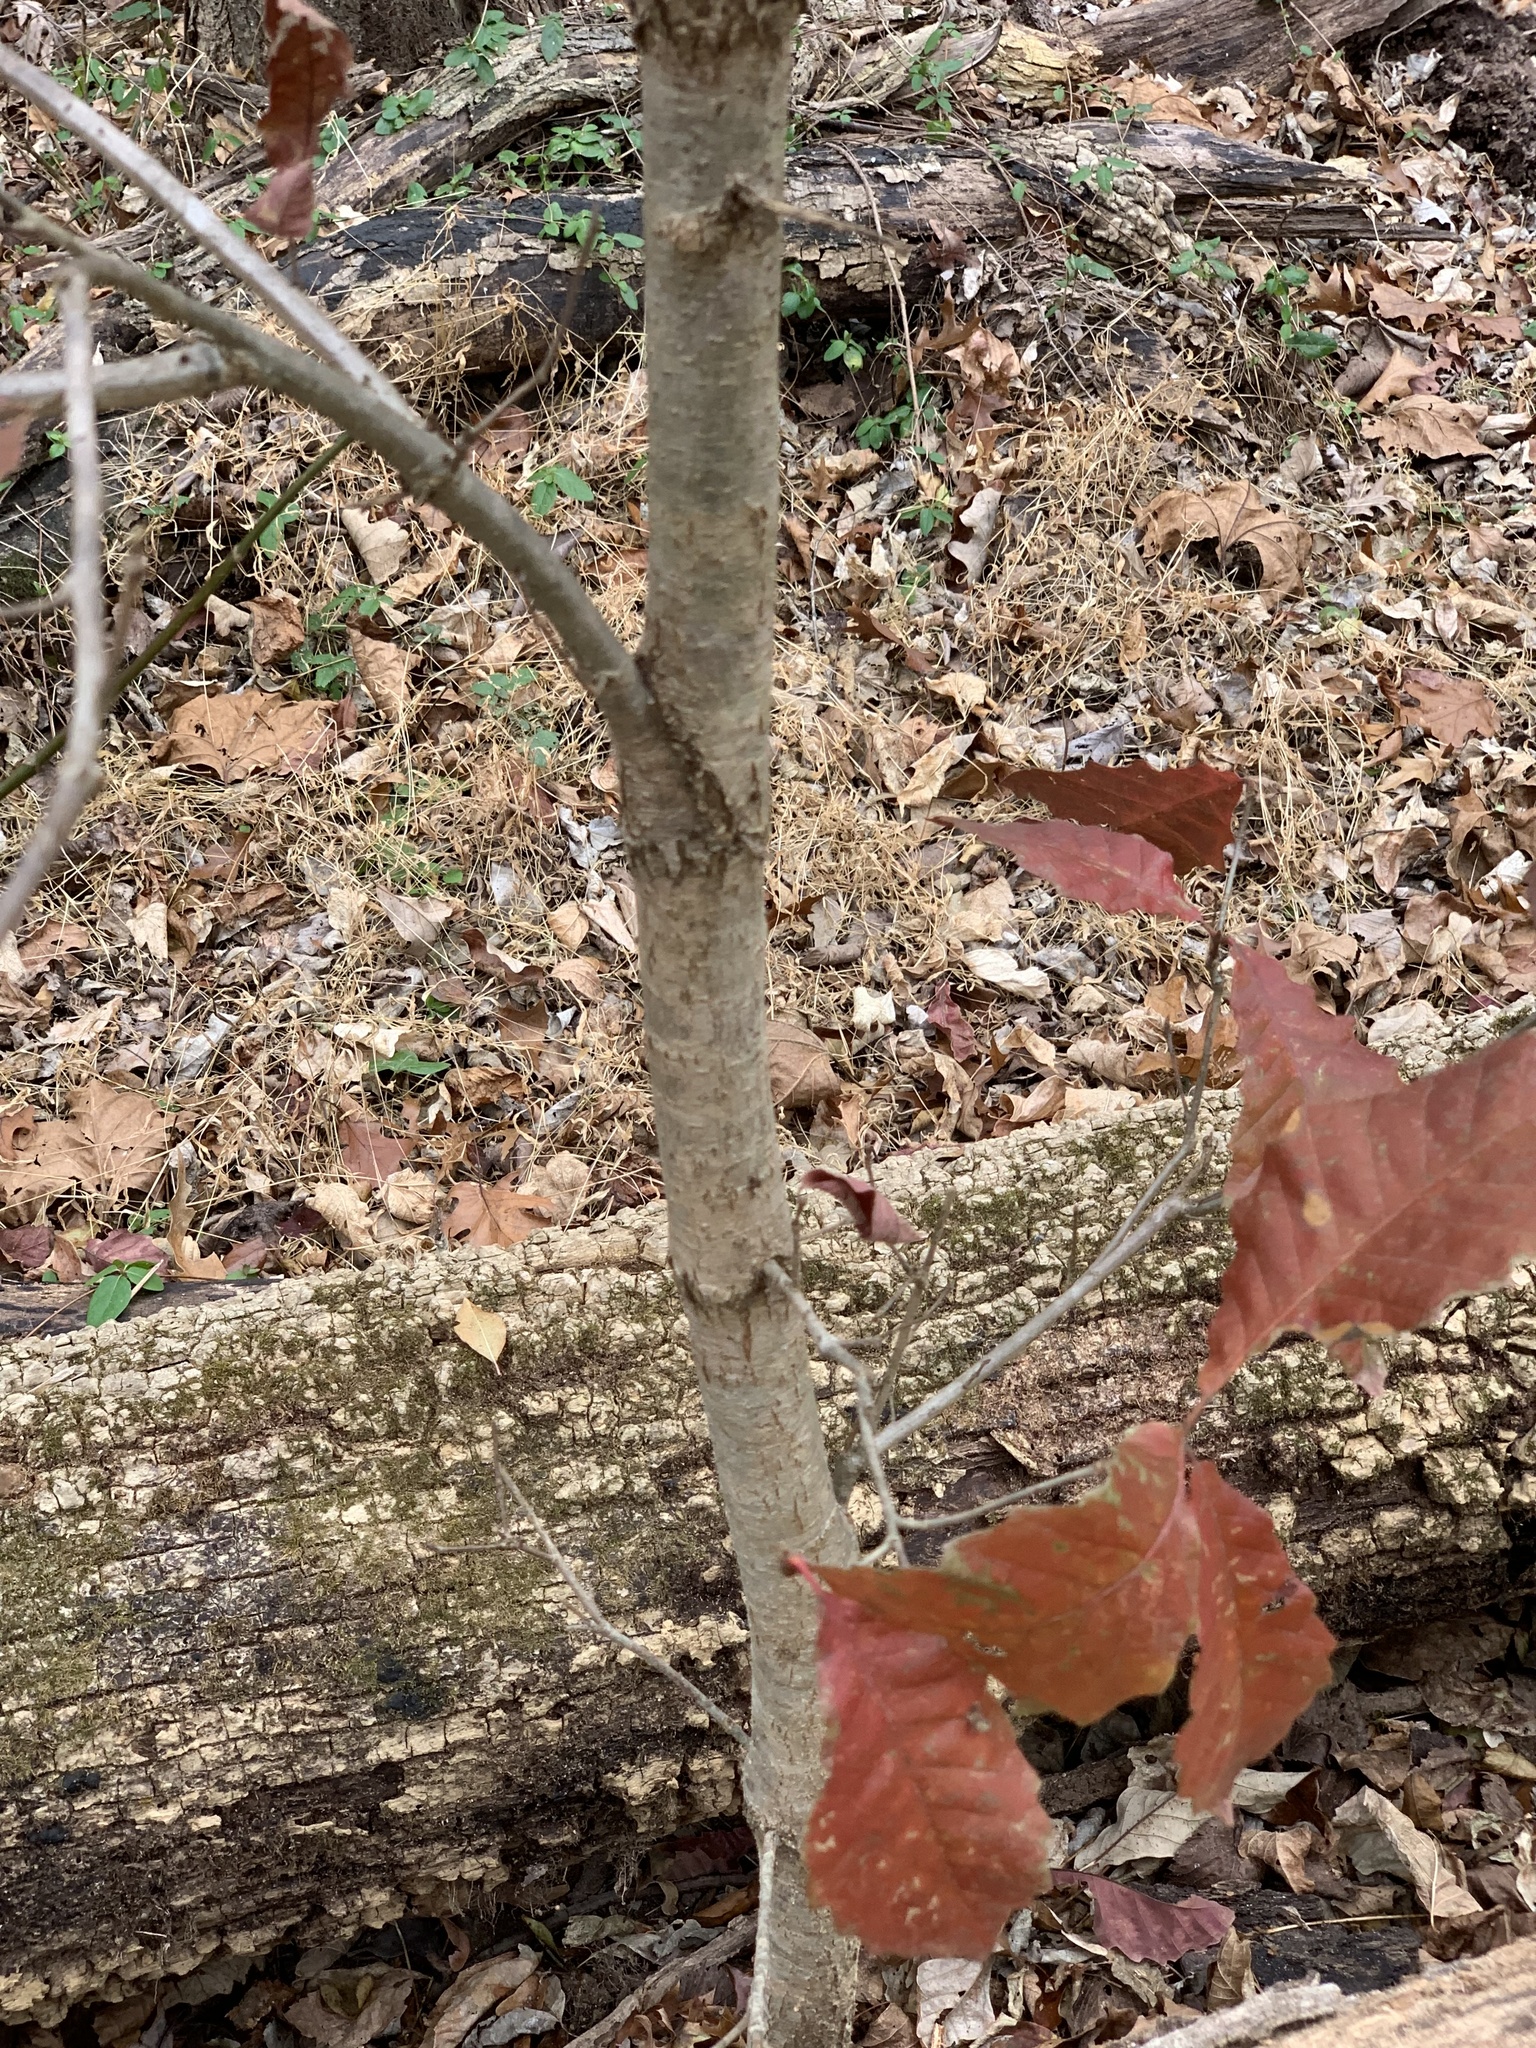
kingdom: Plantae
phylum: Tracheophyta
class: Magnoliopsida
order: Fagales
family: Fagaceae
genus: Quercus
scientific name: Quercus michauxii
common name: Swamp chestnut oak
